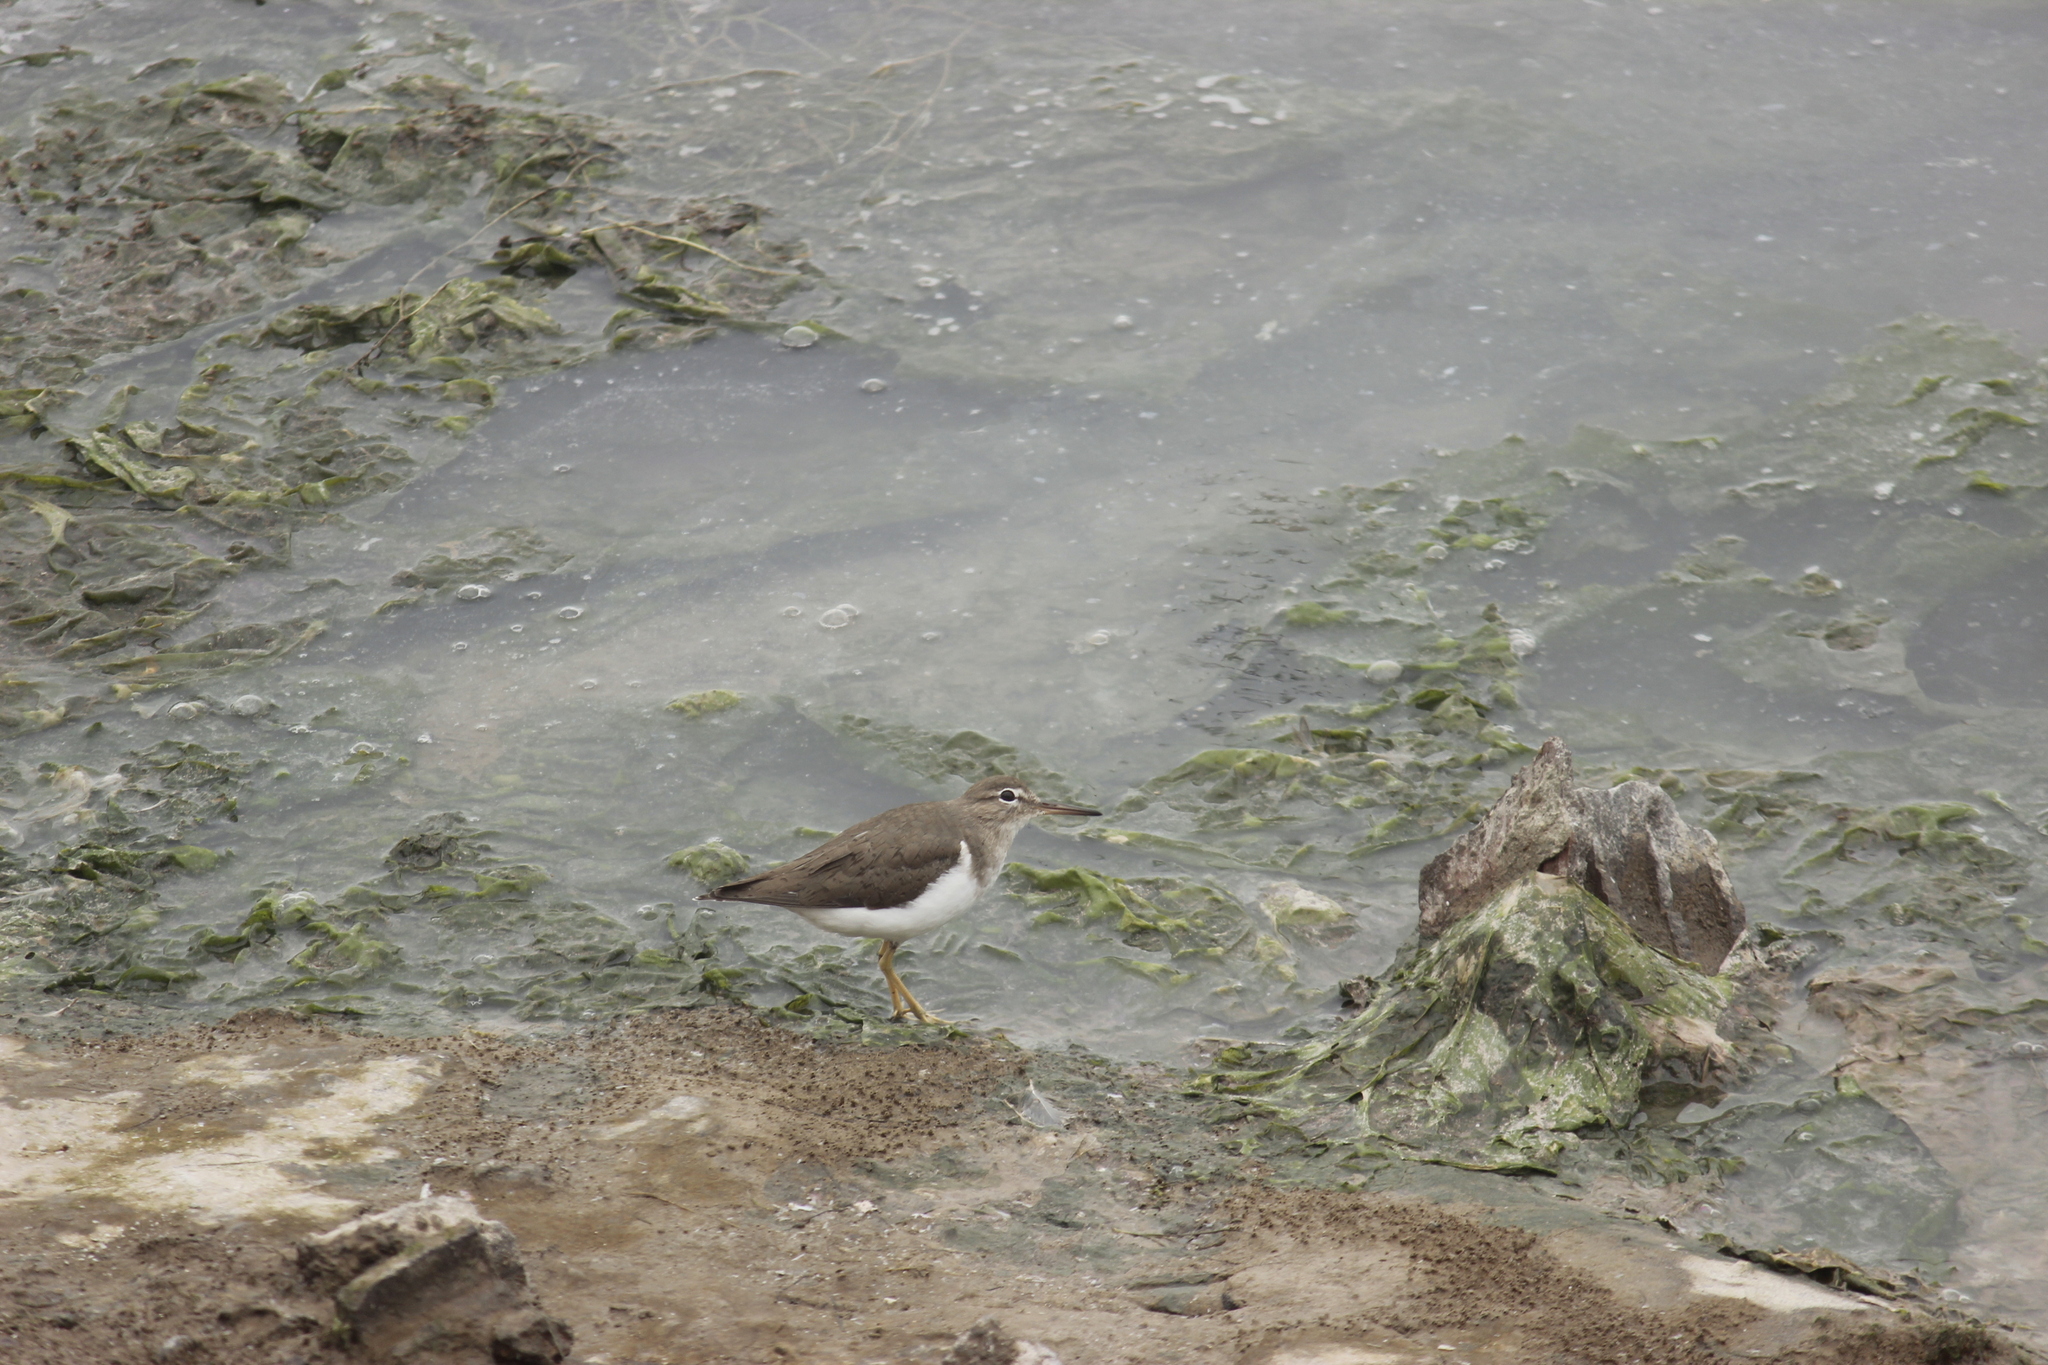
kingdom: Animalia
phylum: Chordata
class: Aves
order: Charadriiformes
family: Scolopacidae
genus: Actitis
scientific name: Actitis macularius
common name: Spotted sandpiper
